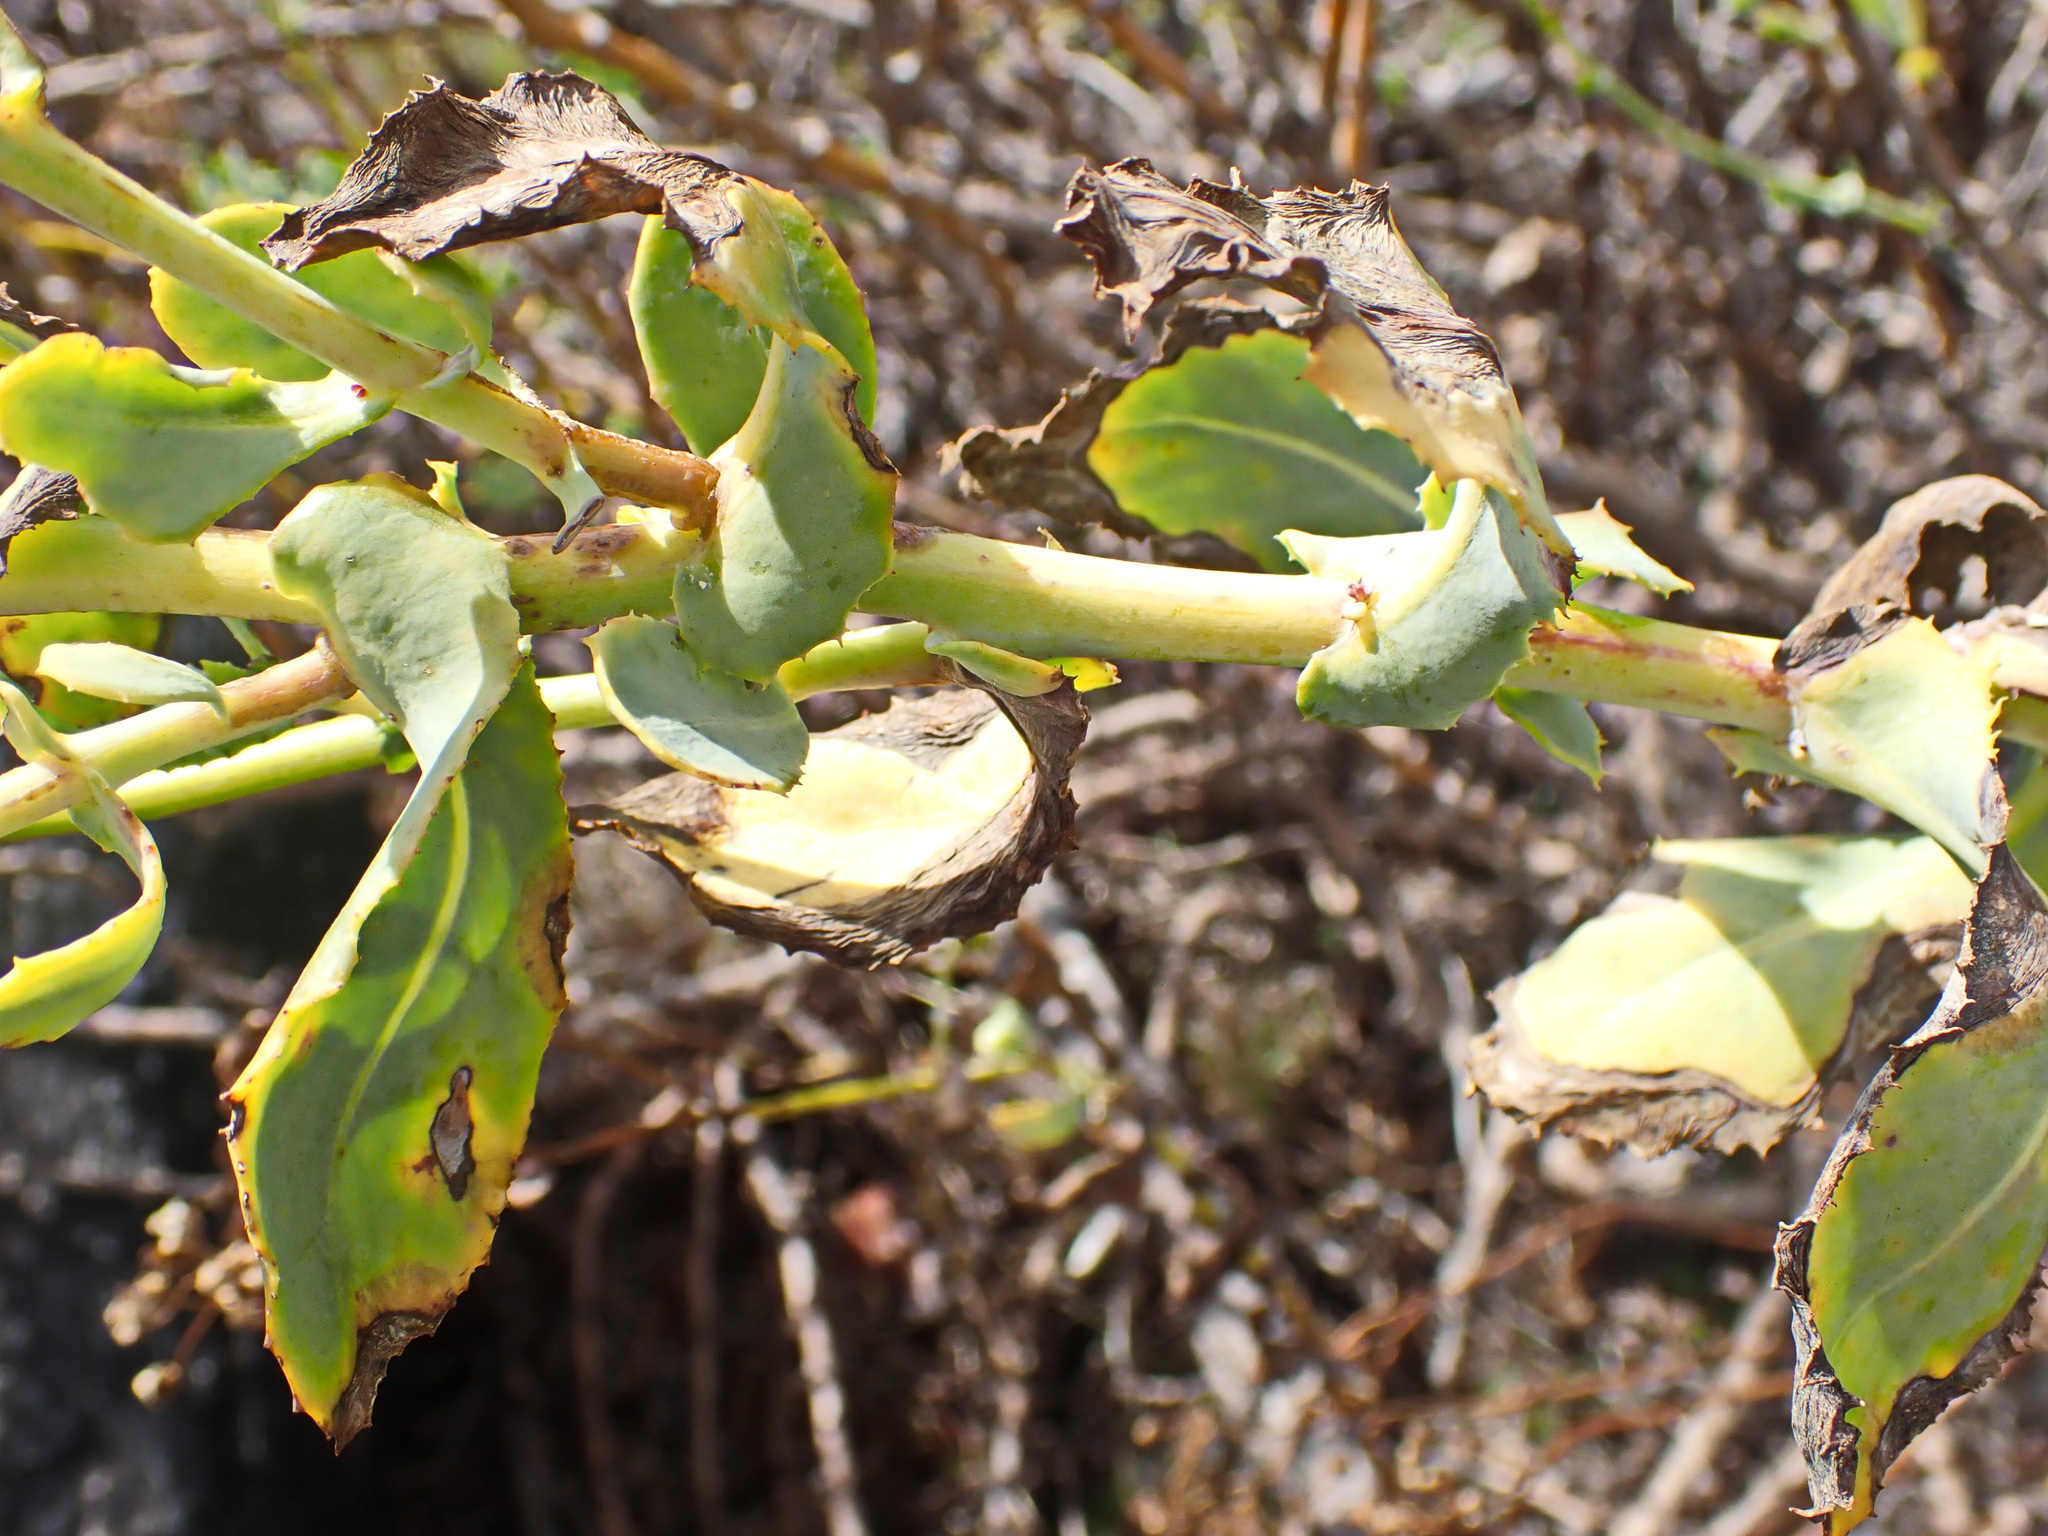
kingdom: Plantae
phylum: Tracheophyta
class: Magnoliopsida
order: Asterales
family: Asteraceae
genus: Othonna
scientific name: Othonna parviflora
